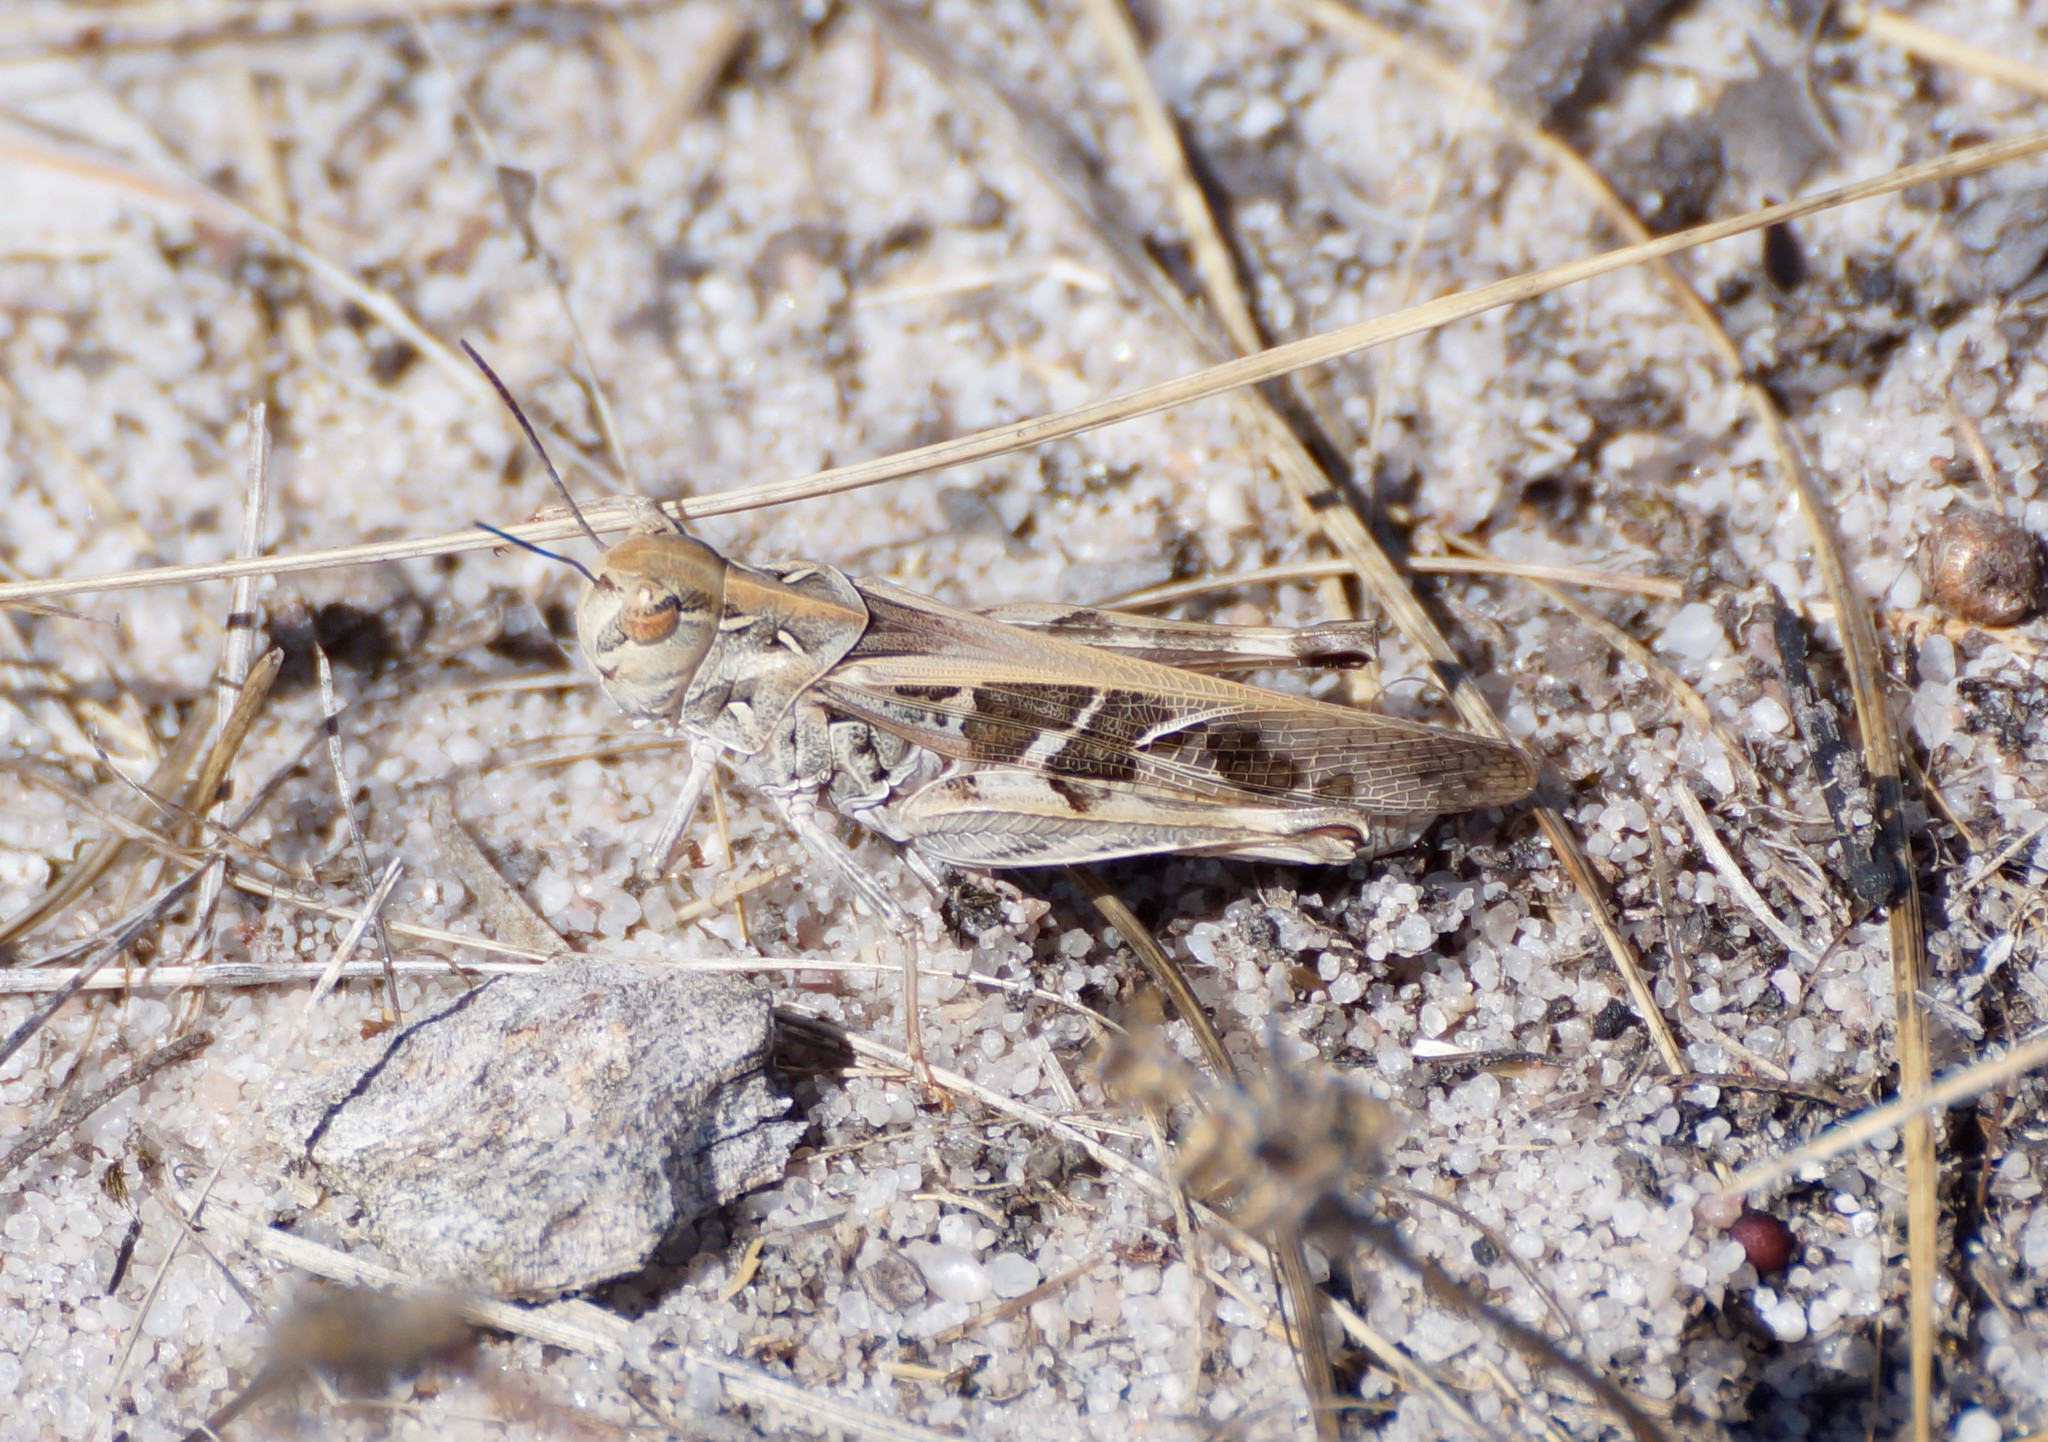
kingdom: Animalia
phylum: Arthropoda
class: Insecta
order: Orthoptera
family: Acrididae
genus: Oedaleus
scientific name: Oedaleus australis
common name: Eastern oedaleus
